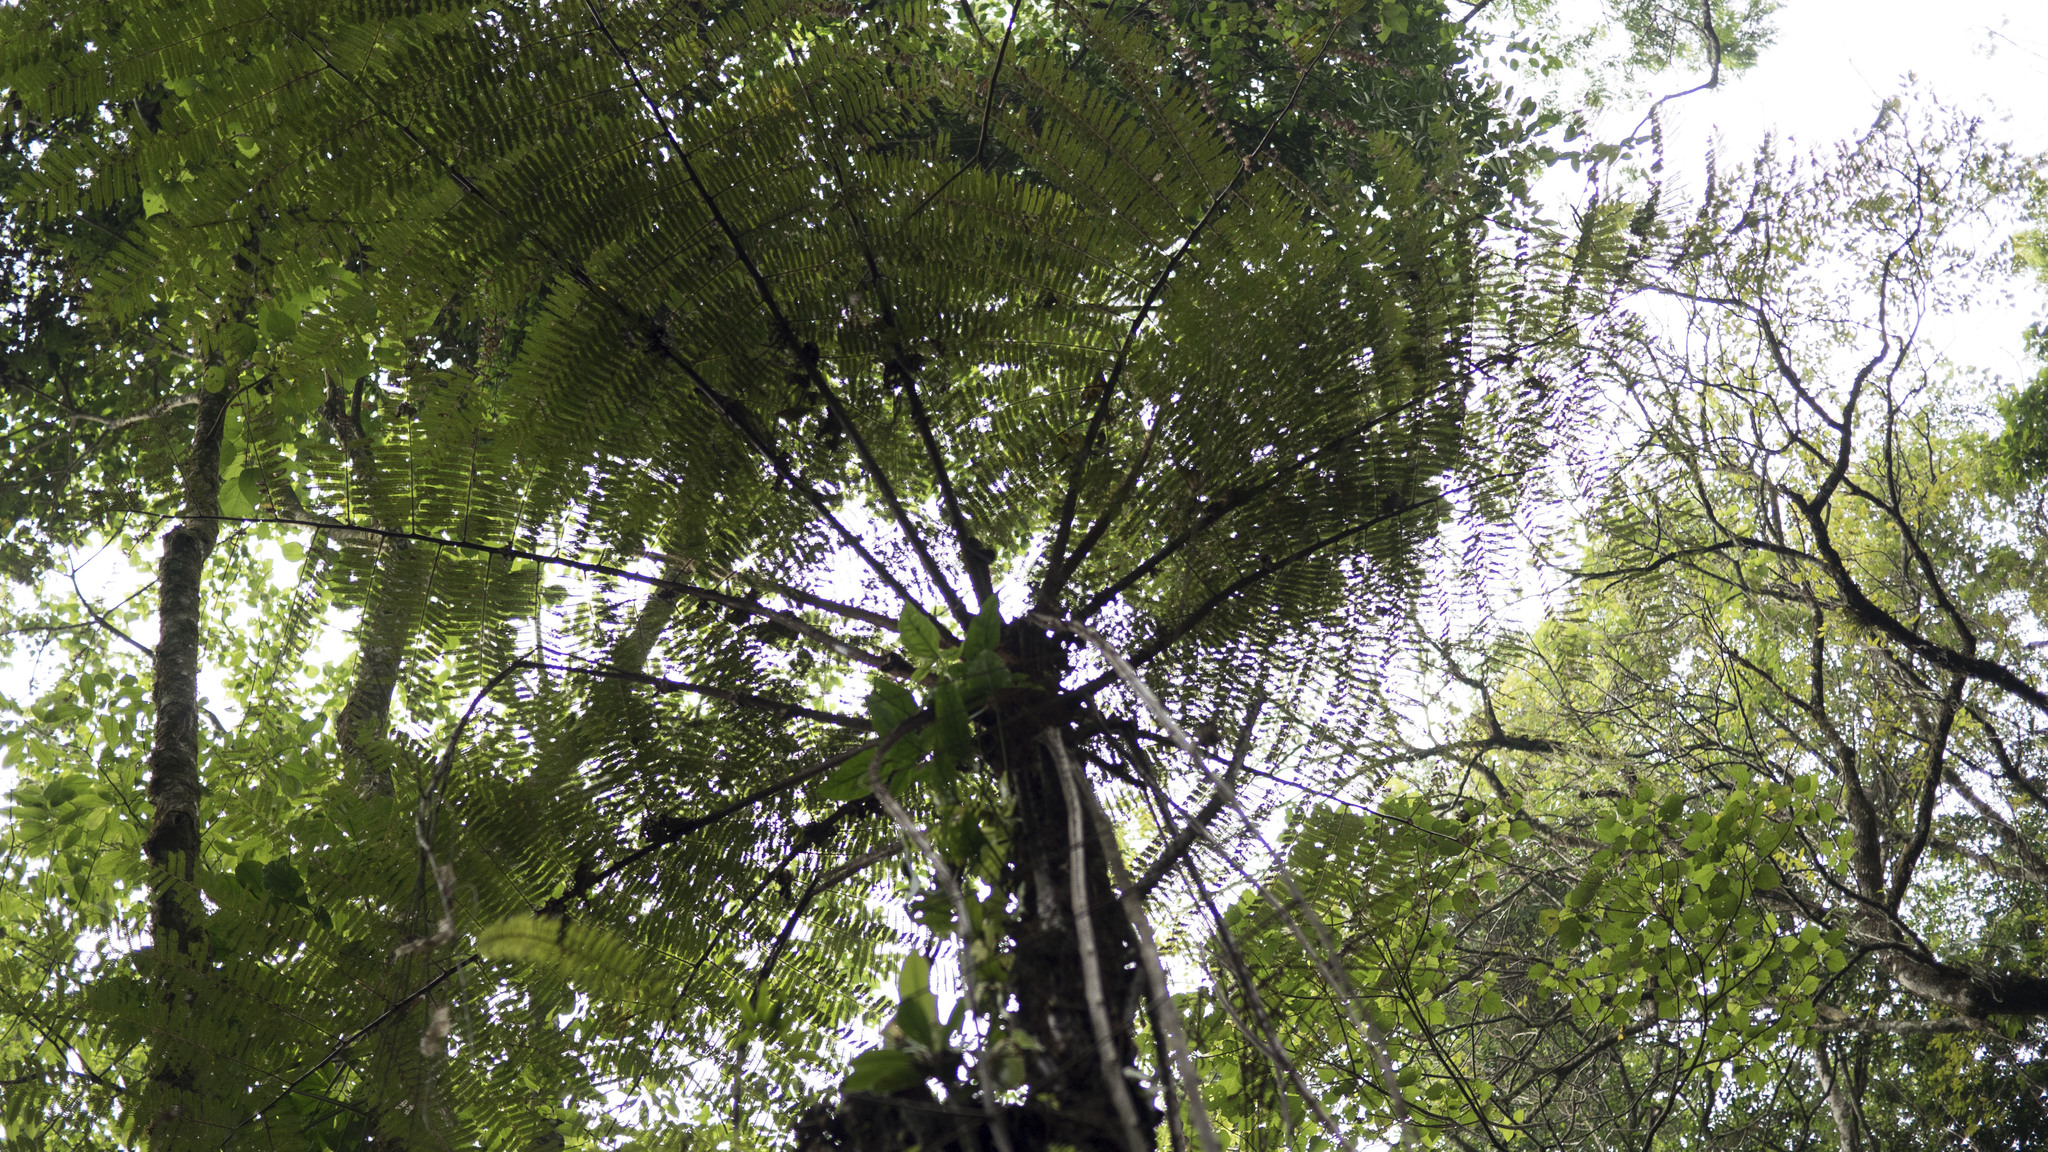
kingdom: Plantae
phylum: Tracheophyta
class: Polypodiopsida
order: Cyatheales
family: Cyatheaceae
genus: Cyathea
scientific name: Cyathea costaricensis
